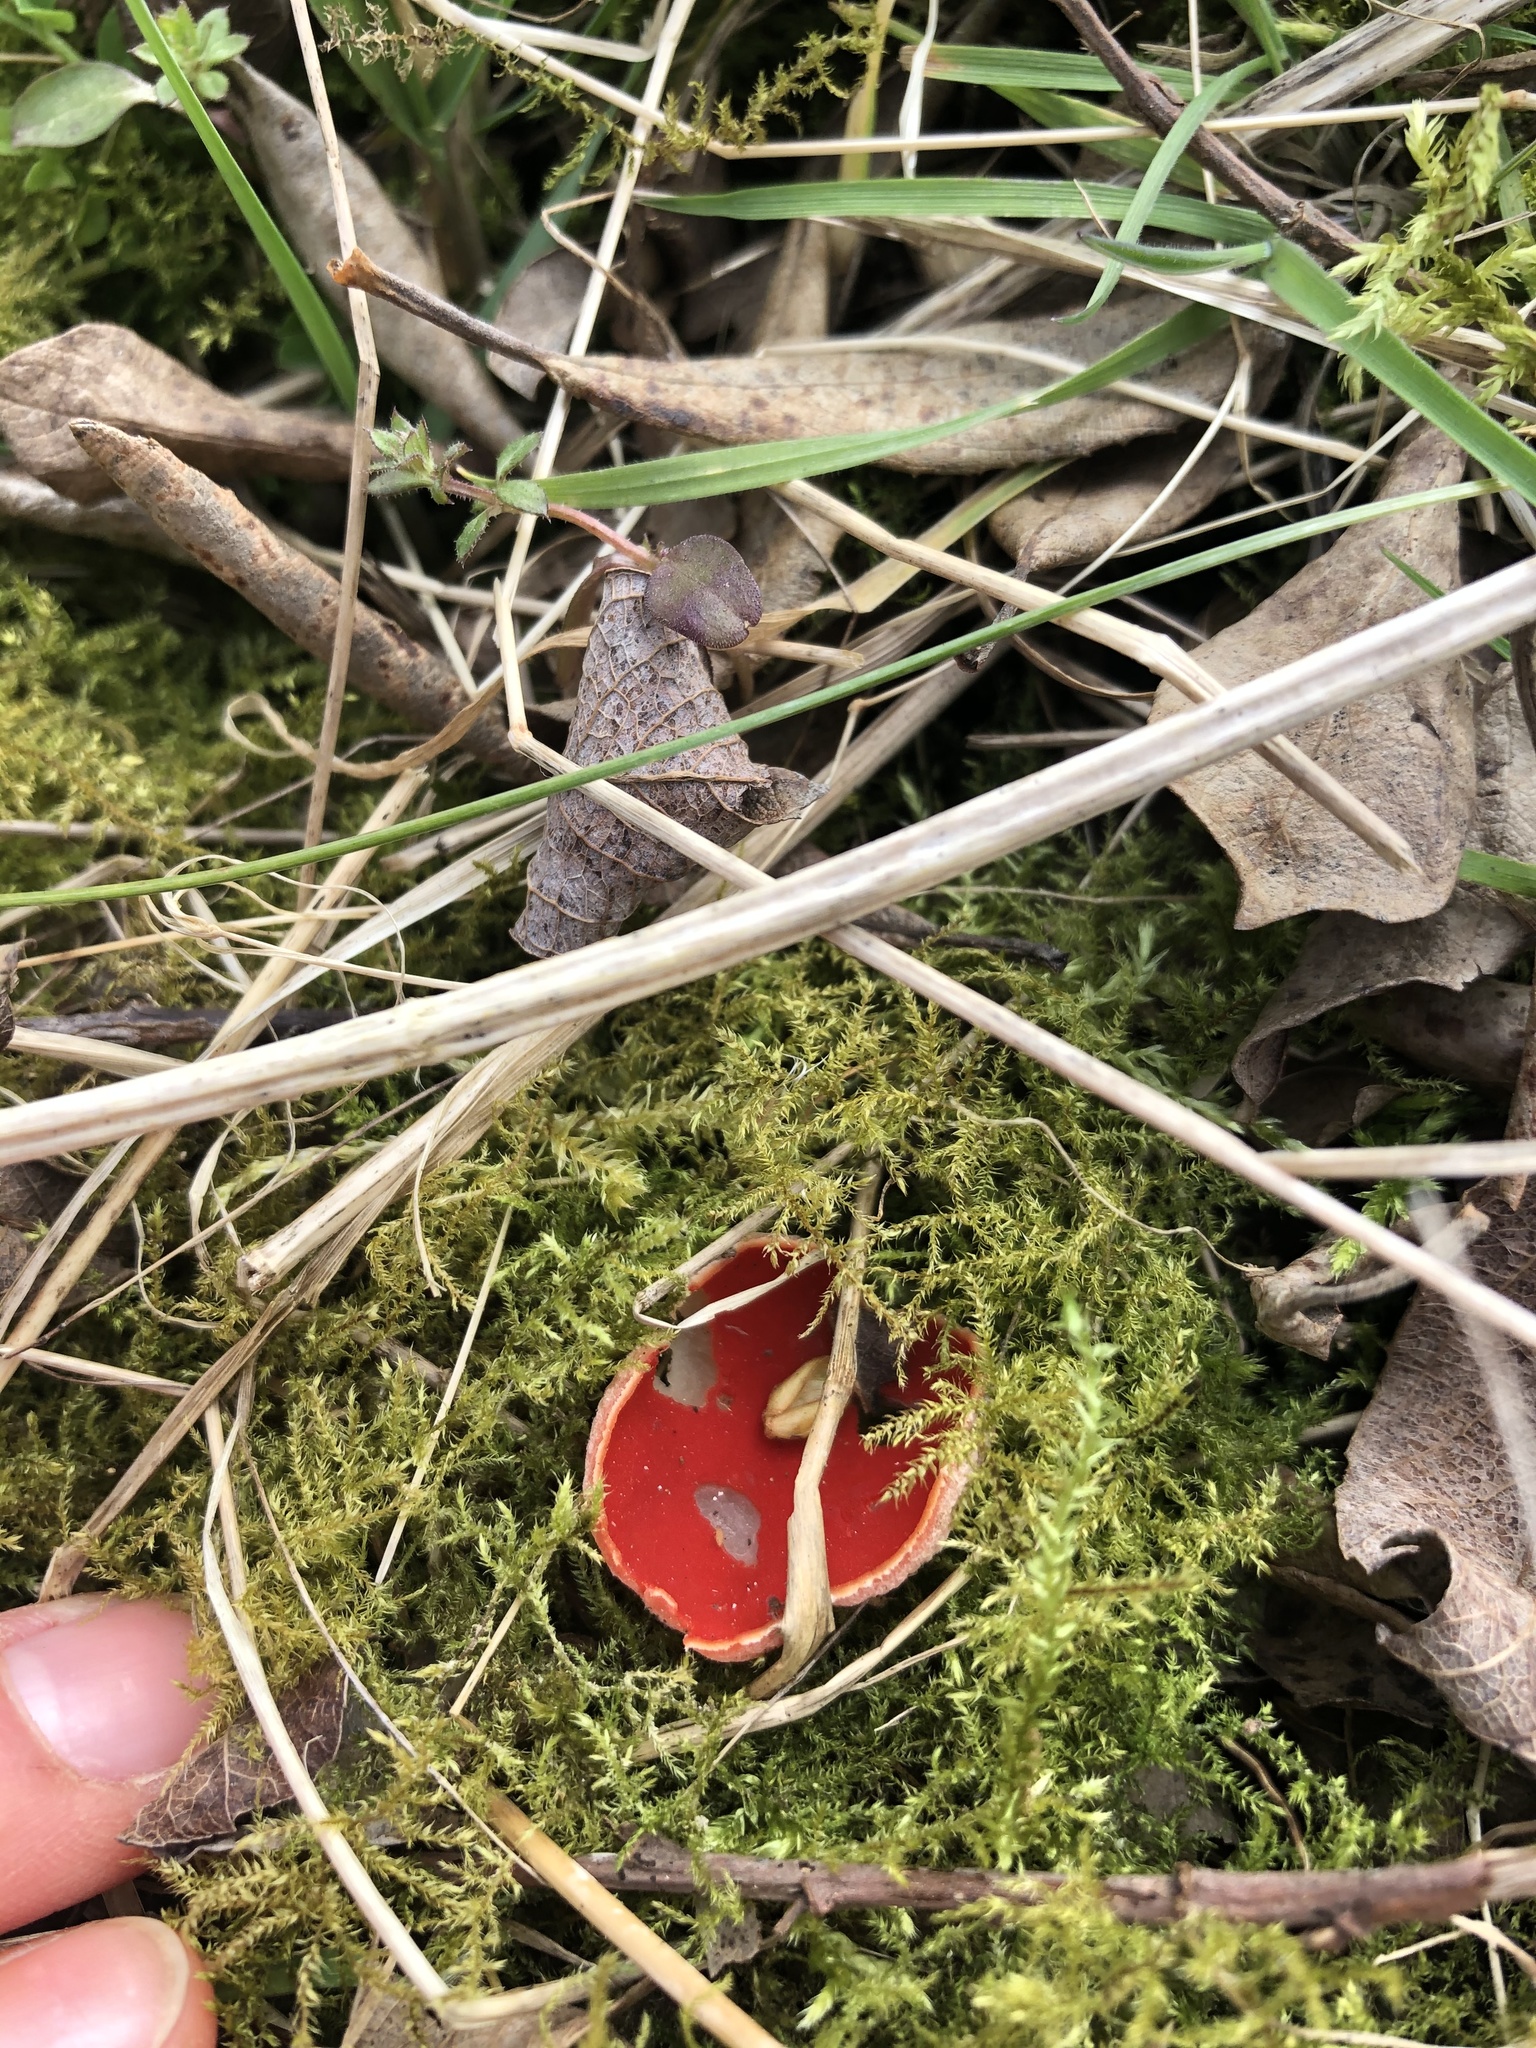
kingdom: Fungi
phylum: Ascomycota
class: Pezizomycetes
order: Pezizales
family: Sarcoscyphaceae
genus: Sarcoscypha
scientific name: Sarcoscypha
